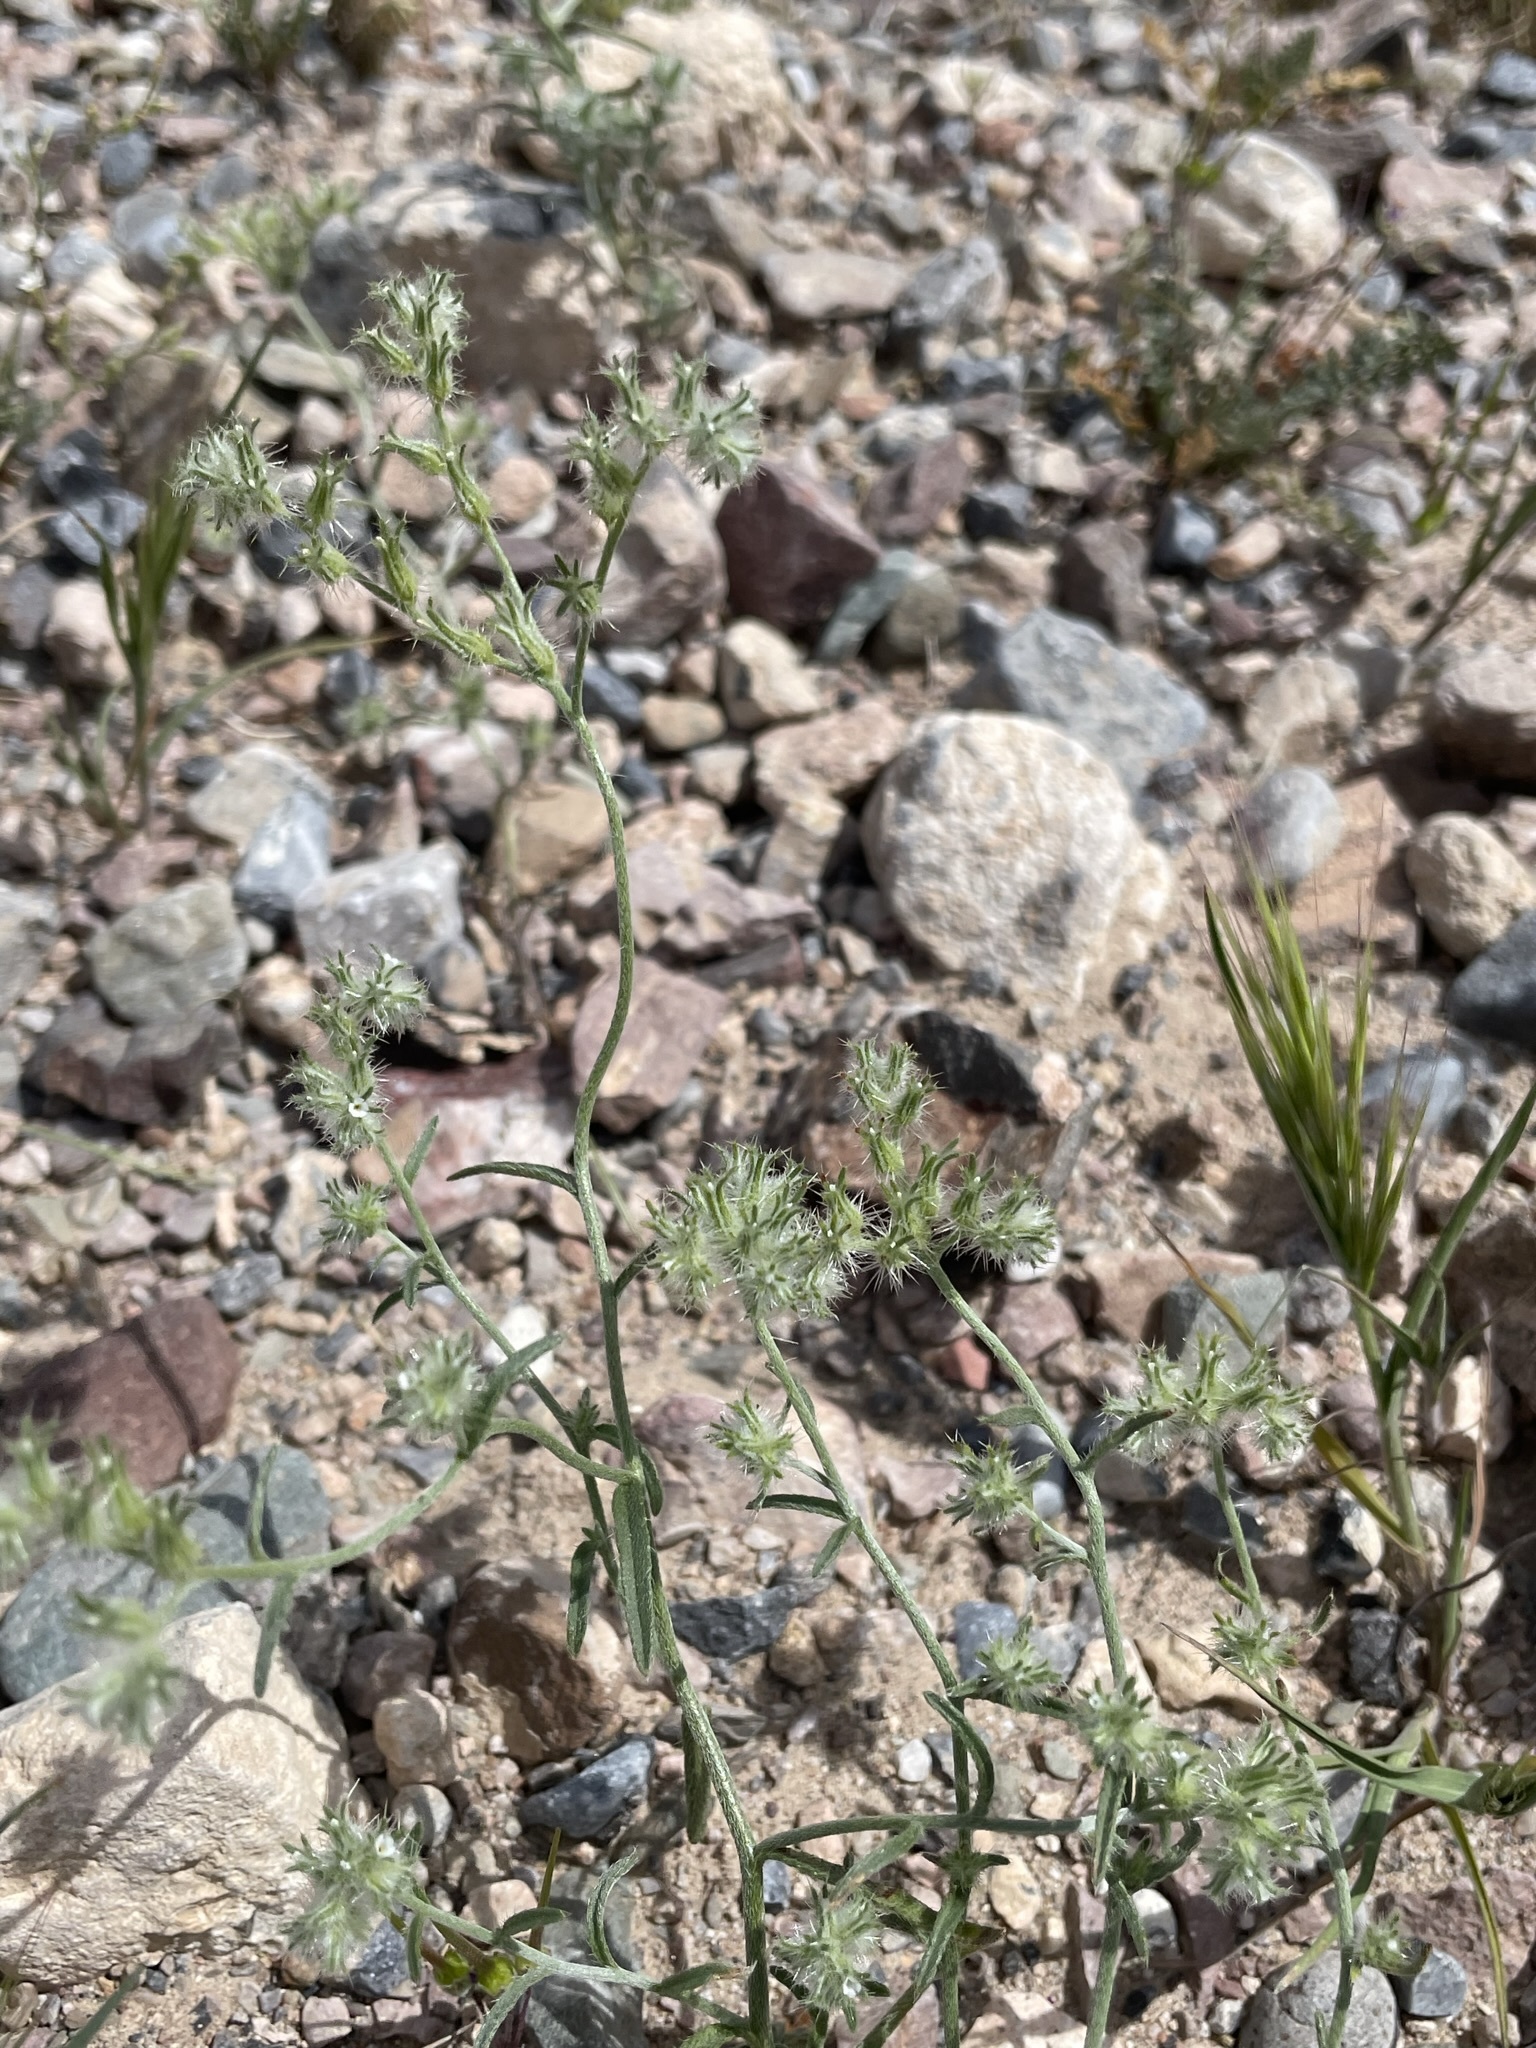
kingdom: Plantae
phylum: Tracheophyta
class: Magnoliopsida
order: Boraginales
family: Boraginaceae
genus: Cryptantha
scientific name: Cryptantha nevadensis
